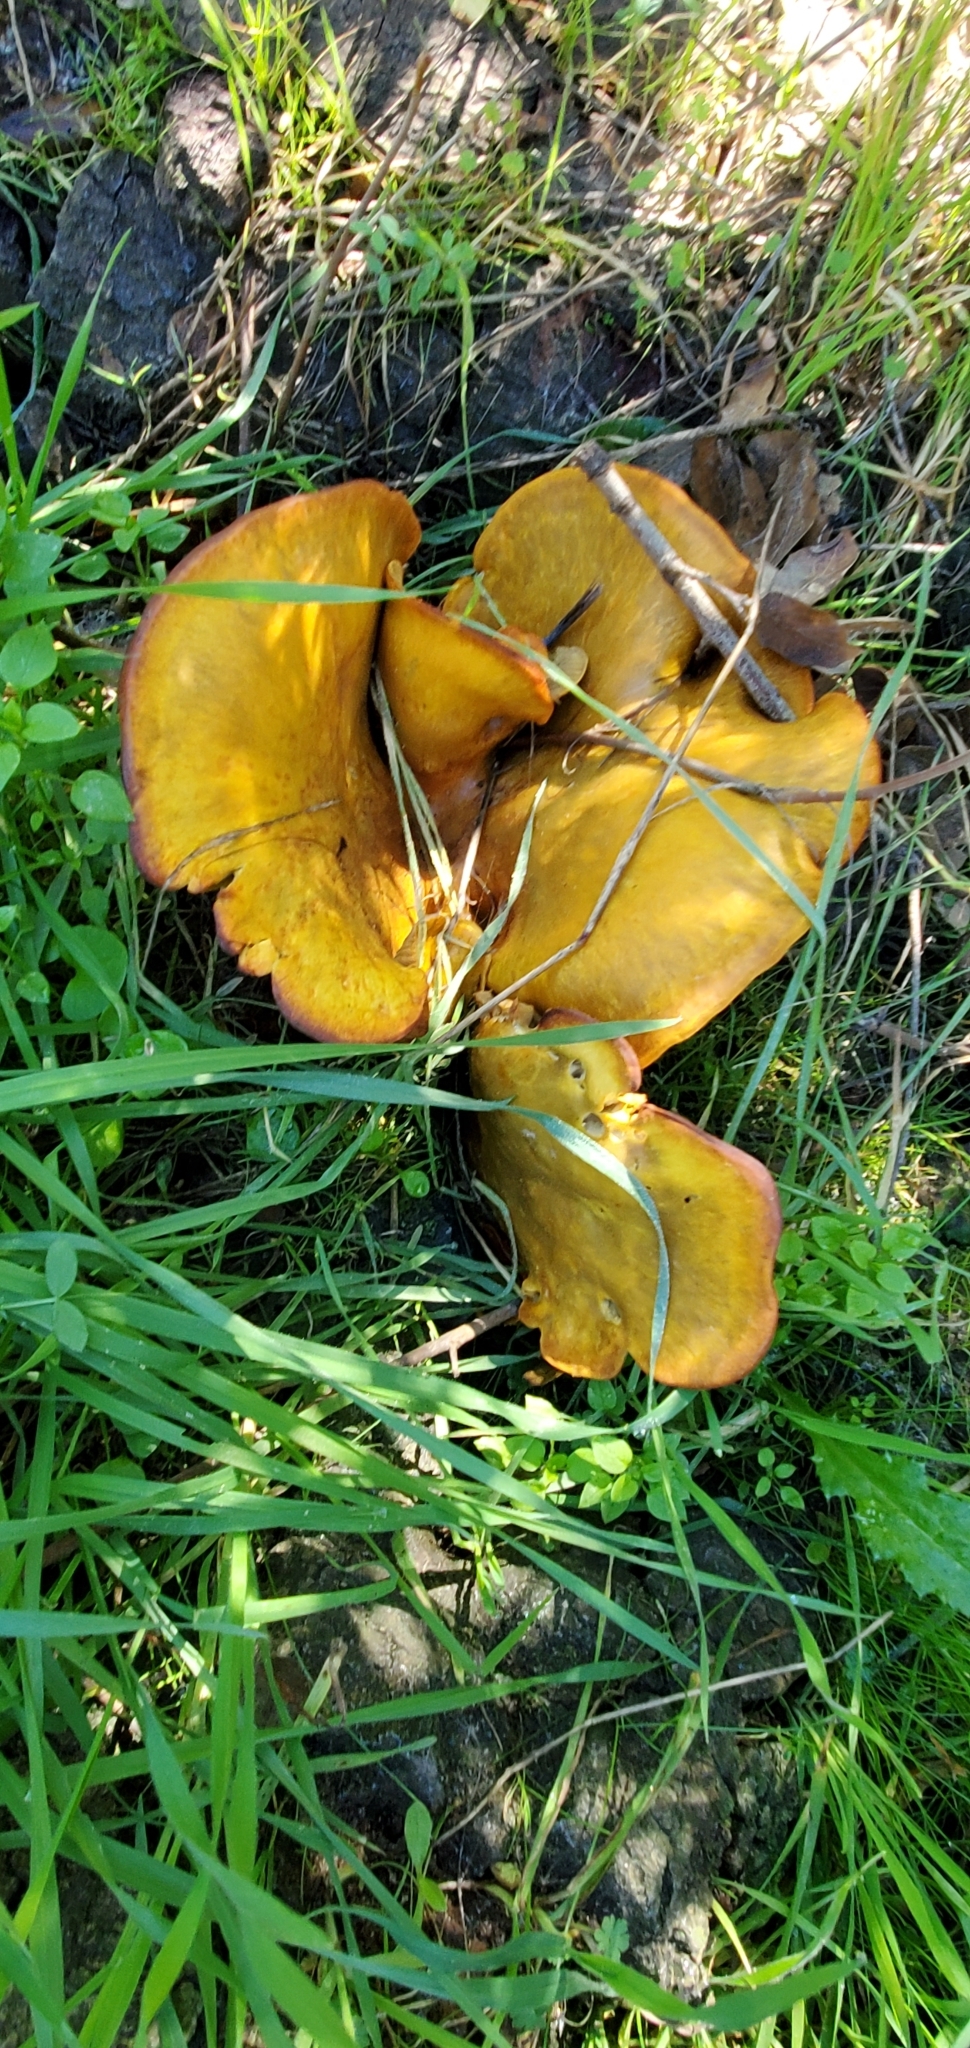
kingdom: Fungi
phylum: Basidiomycota
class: Agaricomycetes
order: Agaricales
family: Omphalotaceae
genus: Omphalotus
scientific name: Omphalotus olivascens
